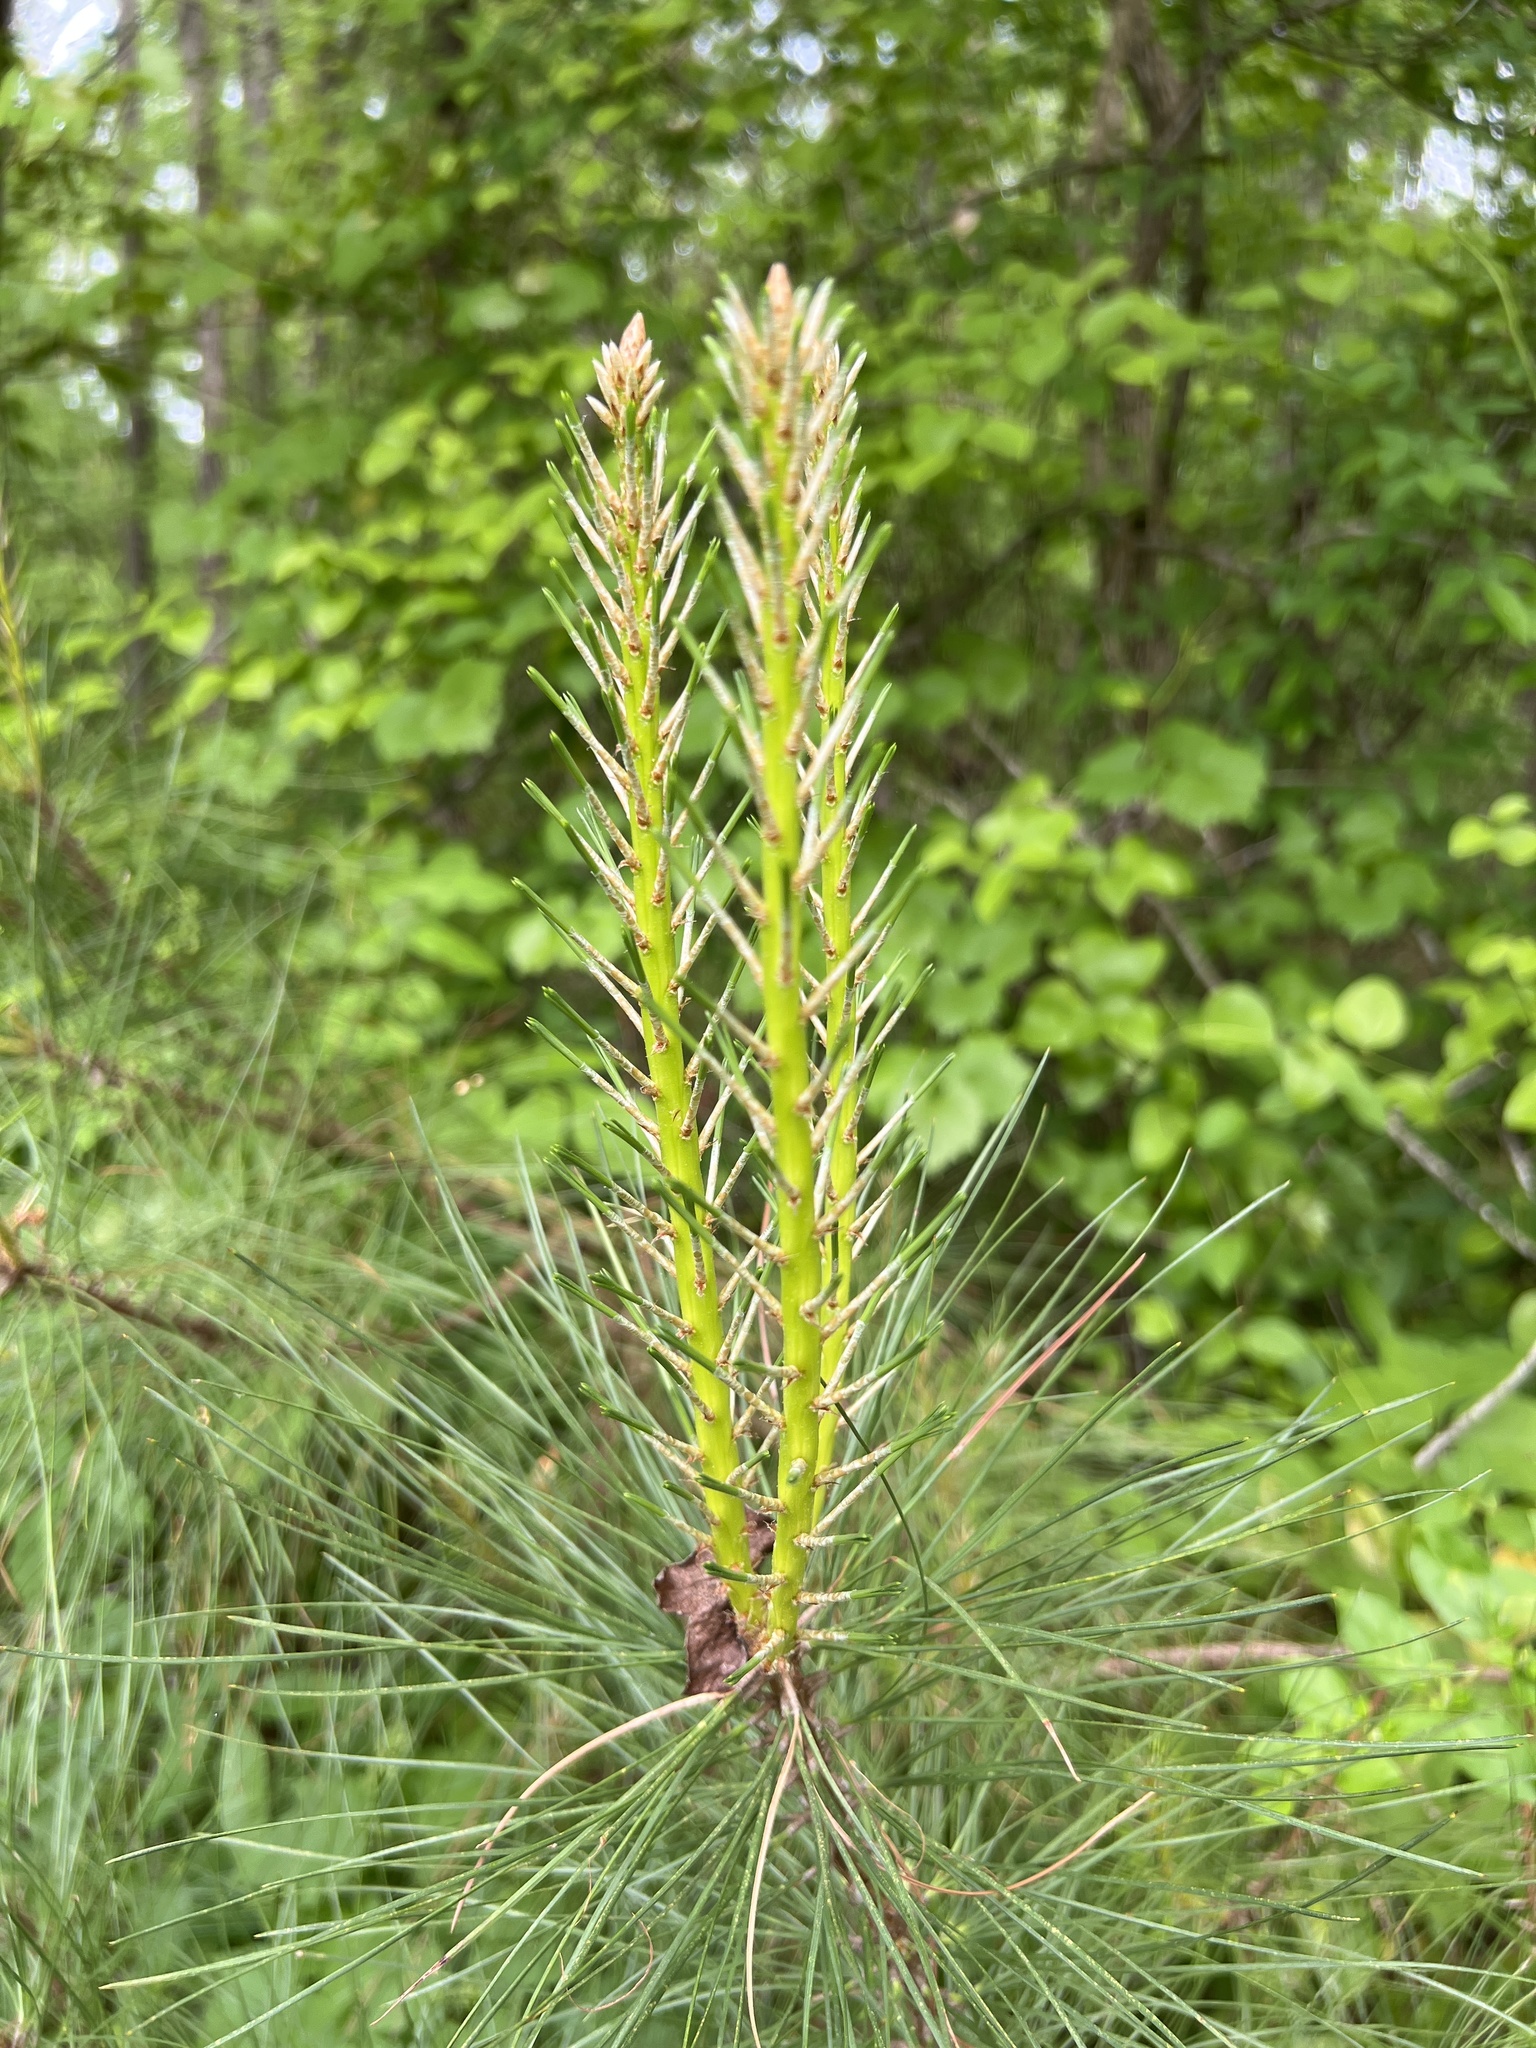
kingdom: Plantae
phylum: Tracheophyta
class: Pinopsida
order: Pinales
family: Pinaceae
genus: Pinus
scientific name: Pinus taeda
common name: Loblolly pine
